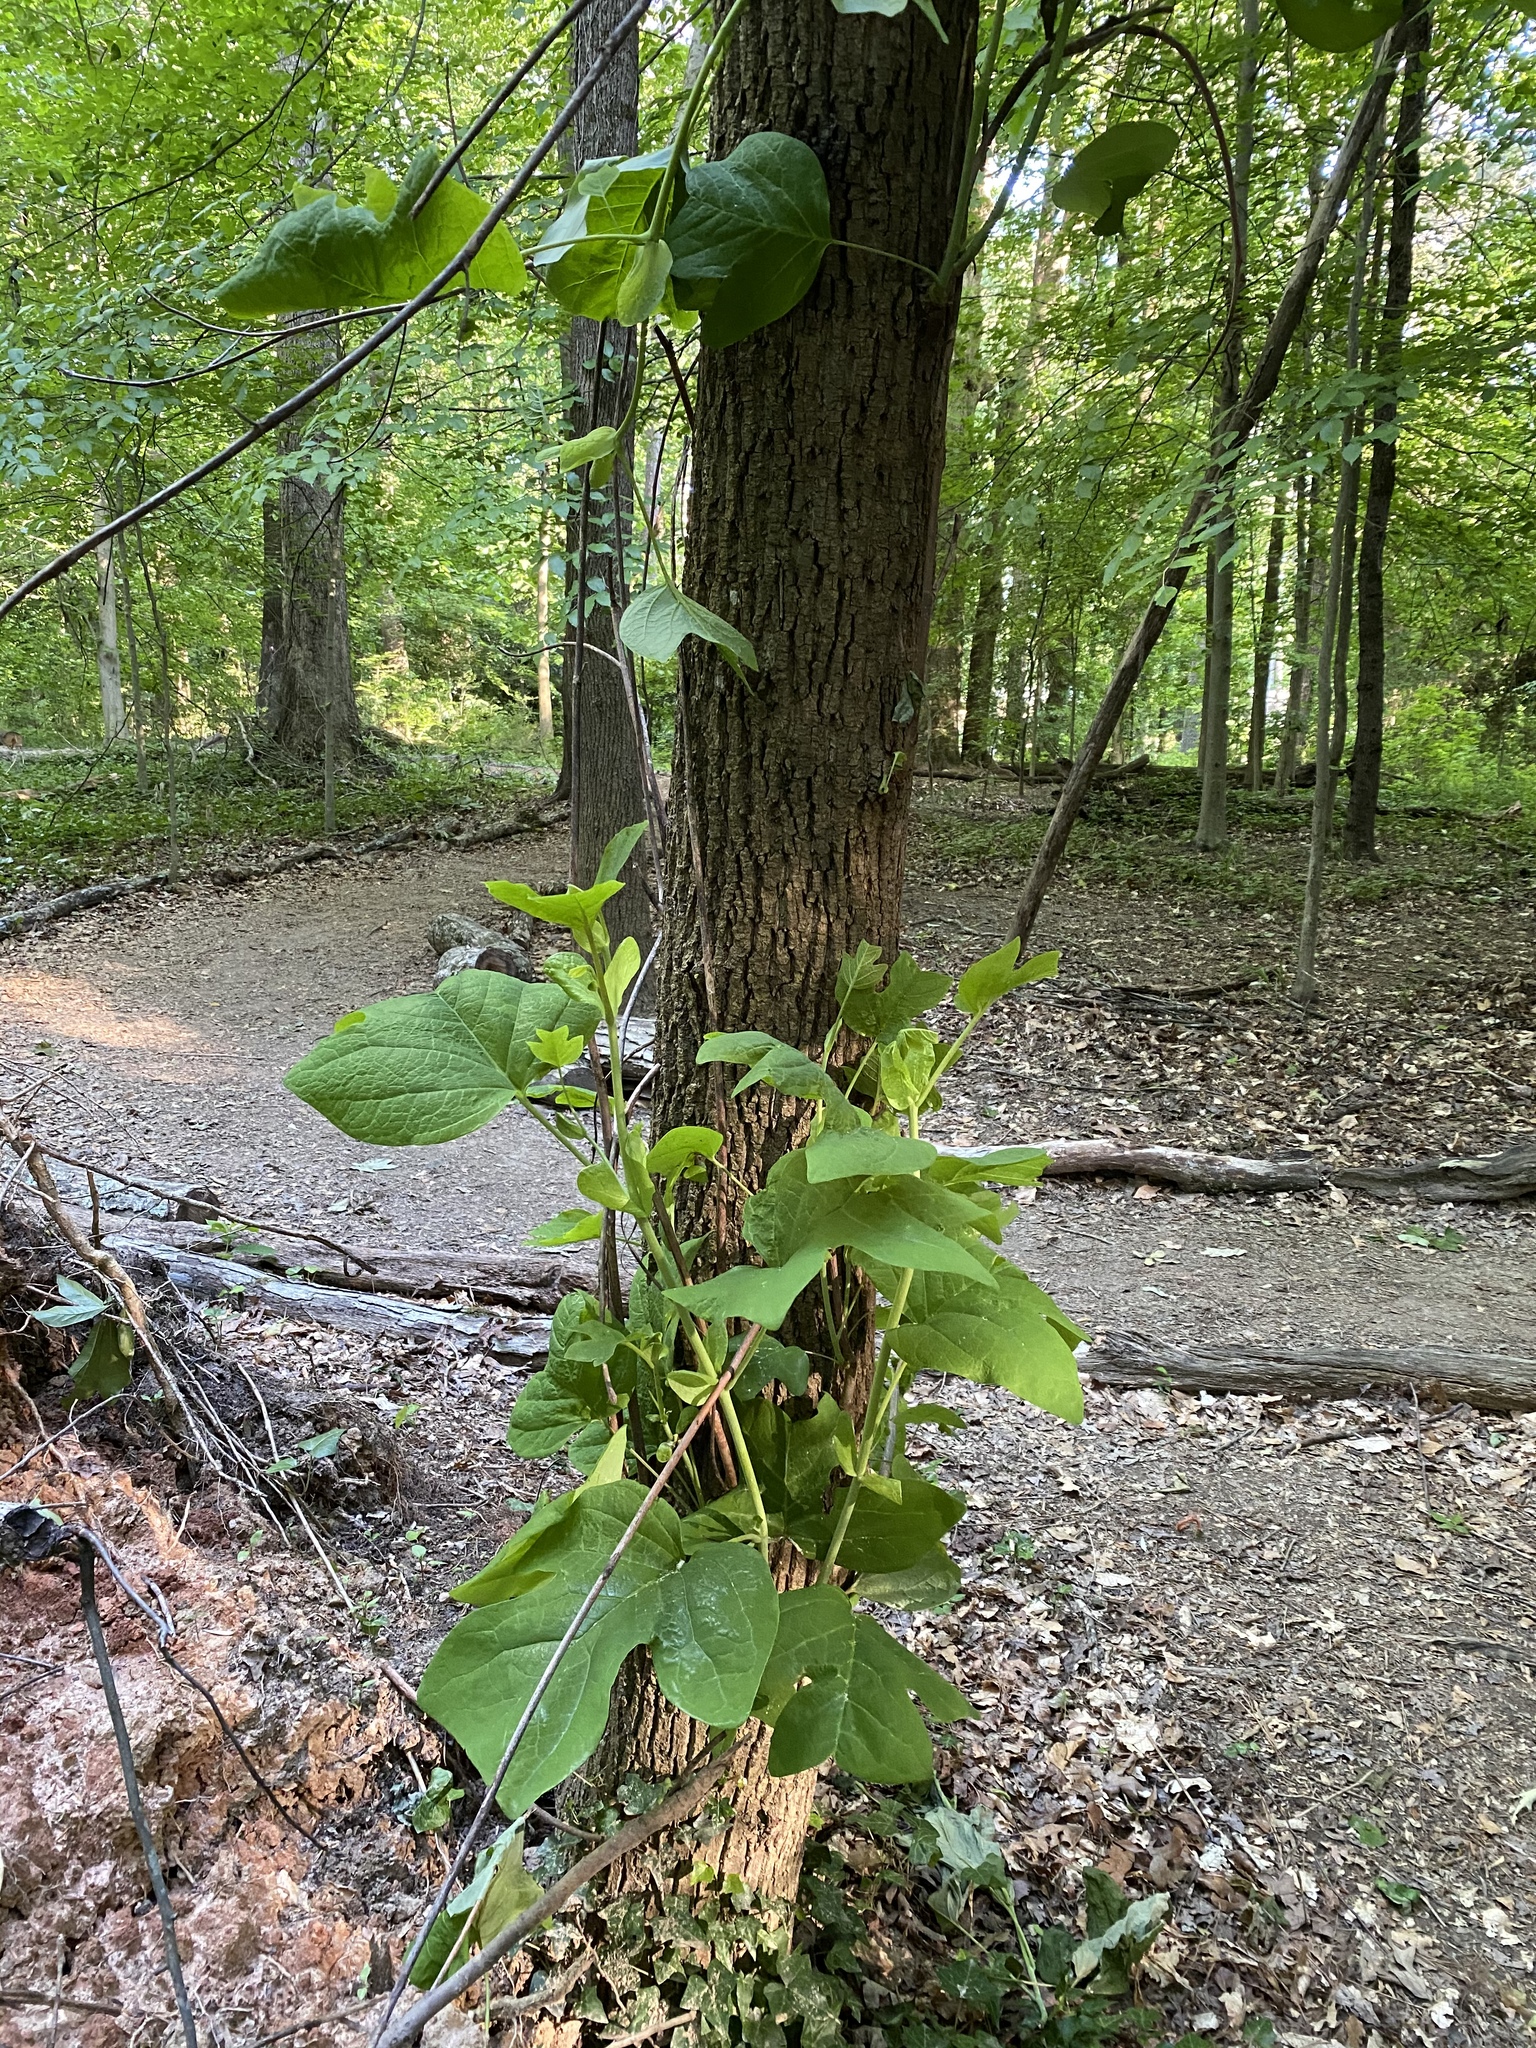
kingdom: Plantae
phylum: Tracheophyta
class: Magnoliopsida
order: Magnoliales
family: Magnoliaceae
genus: Liriodendron
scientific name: Liriodendron tulipifera
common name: Tulip tree
